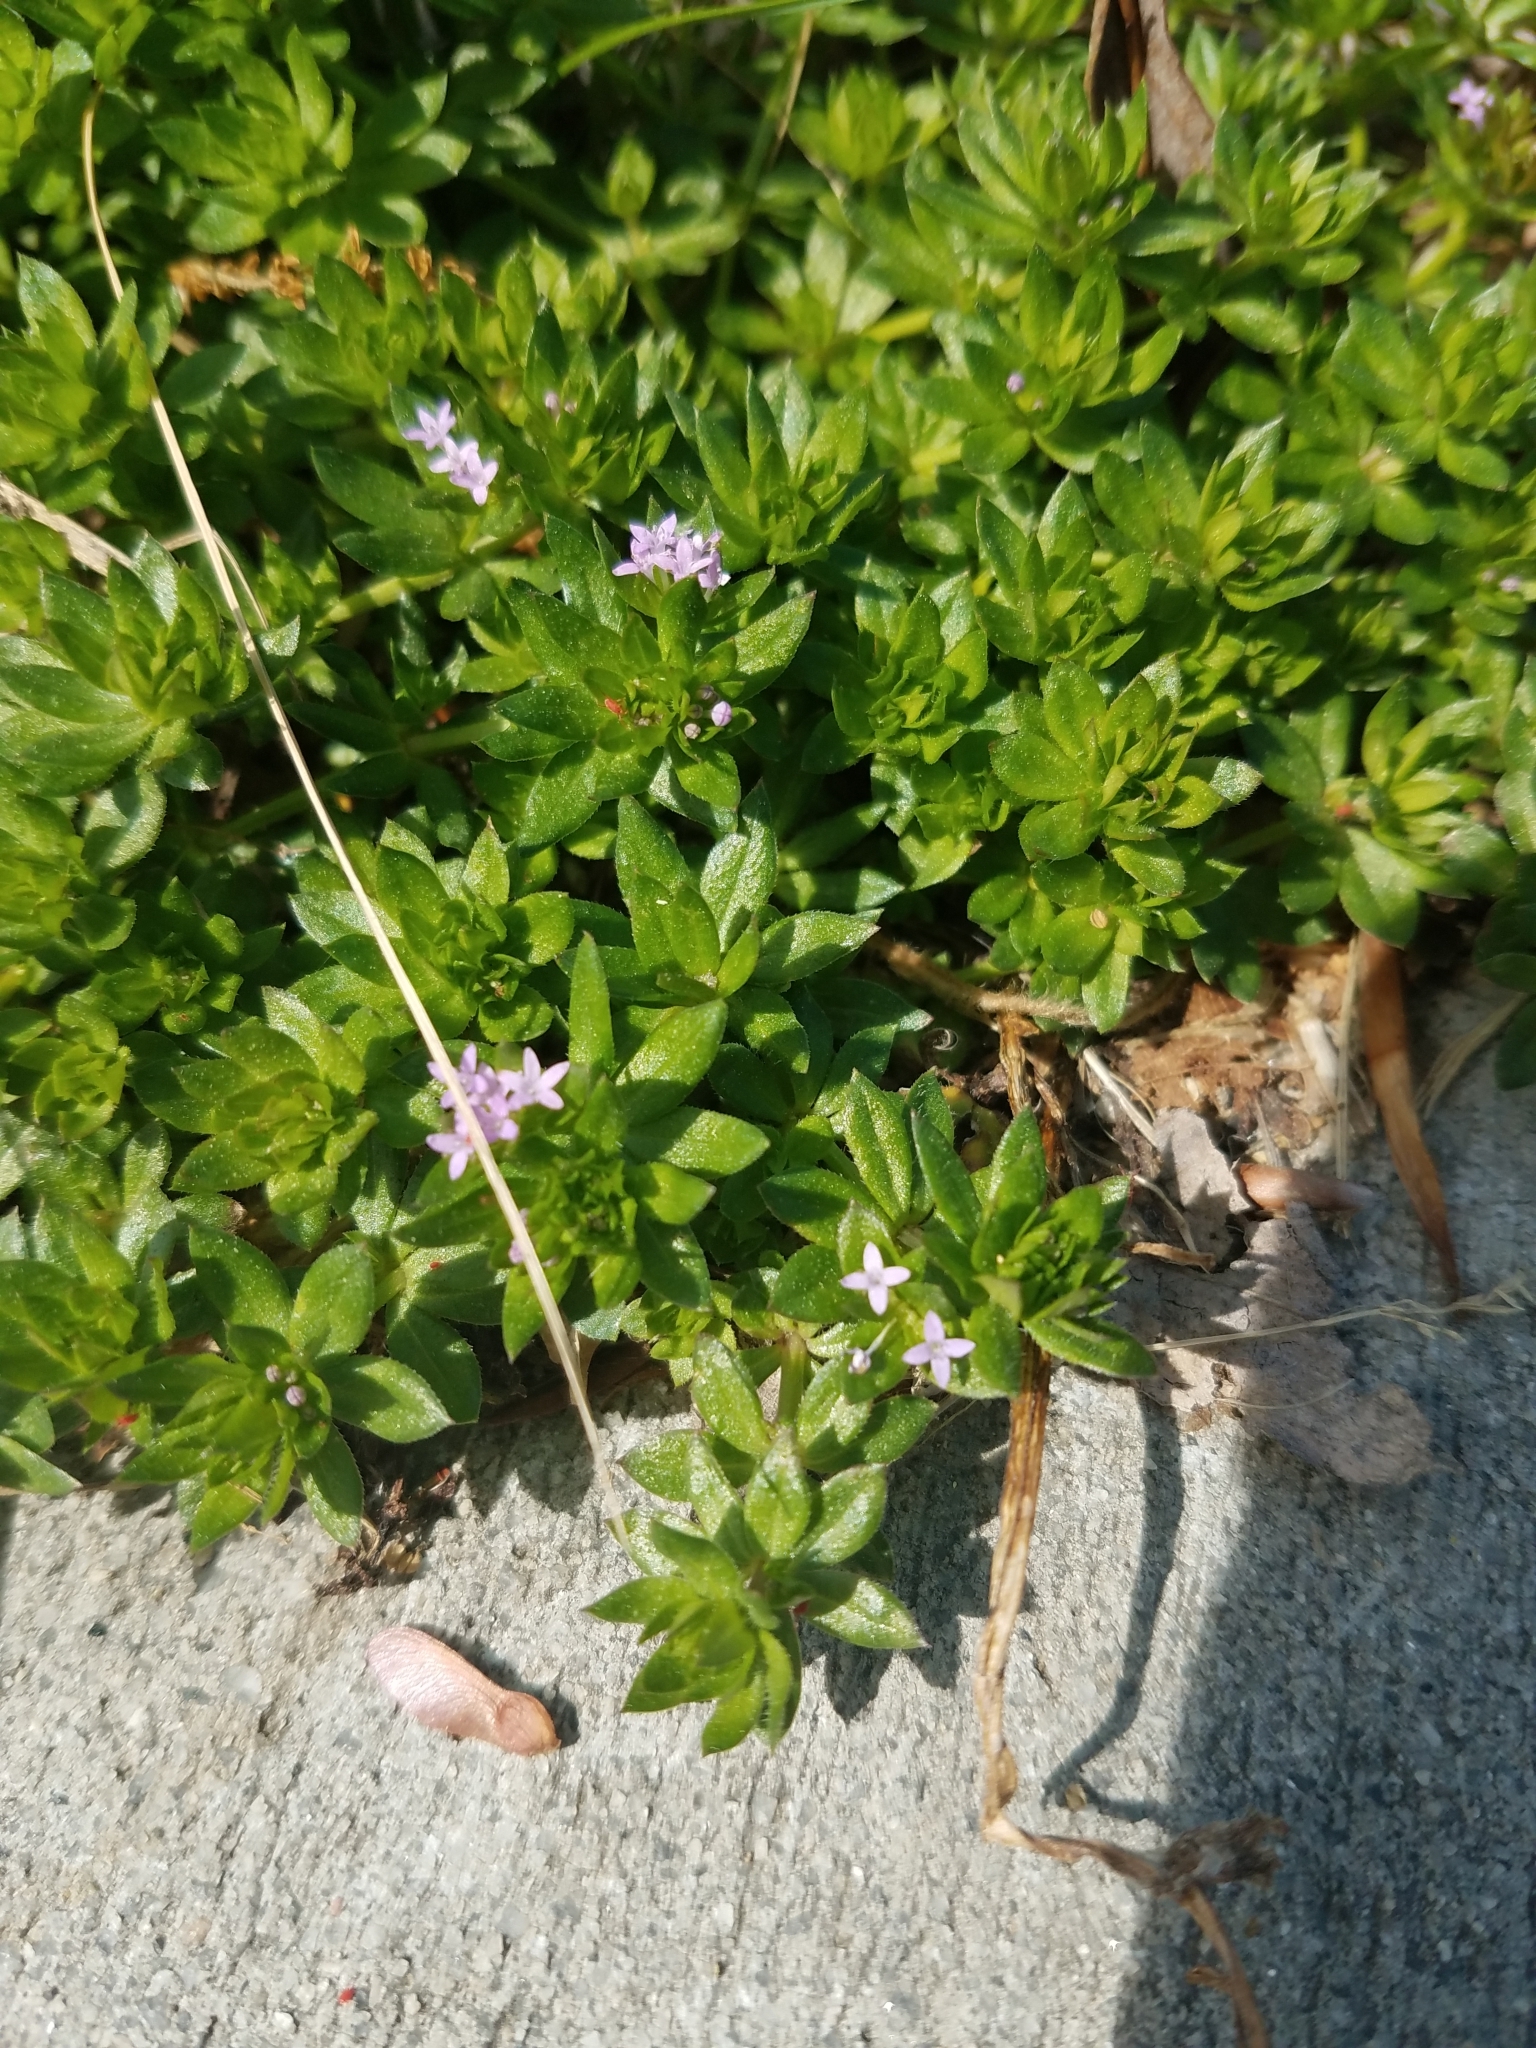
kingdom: Plantae
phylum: Tracheophyta
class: Magnoliopsida
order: Gentianales
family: Rubiaceae
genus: Sherardia
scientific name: Sherardia arvensis
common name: Field madder
